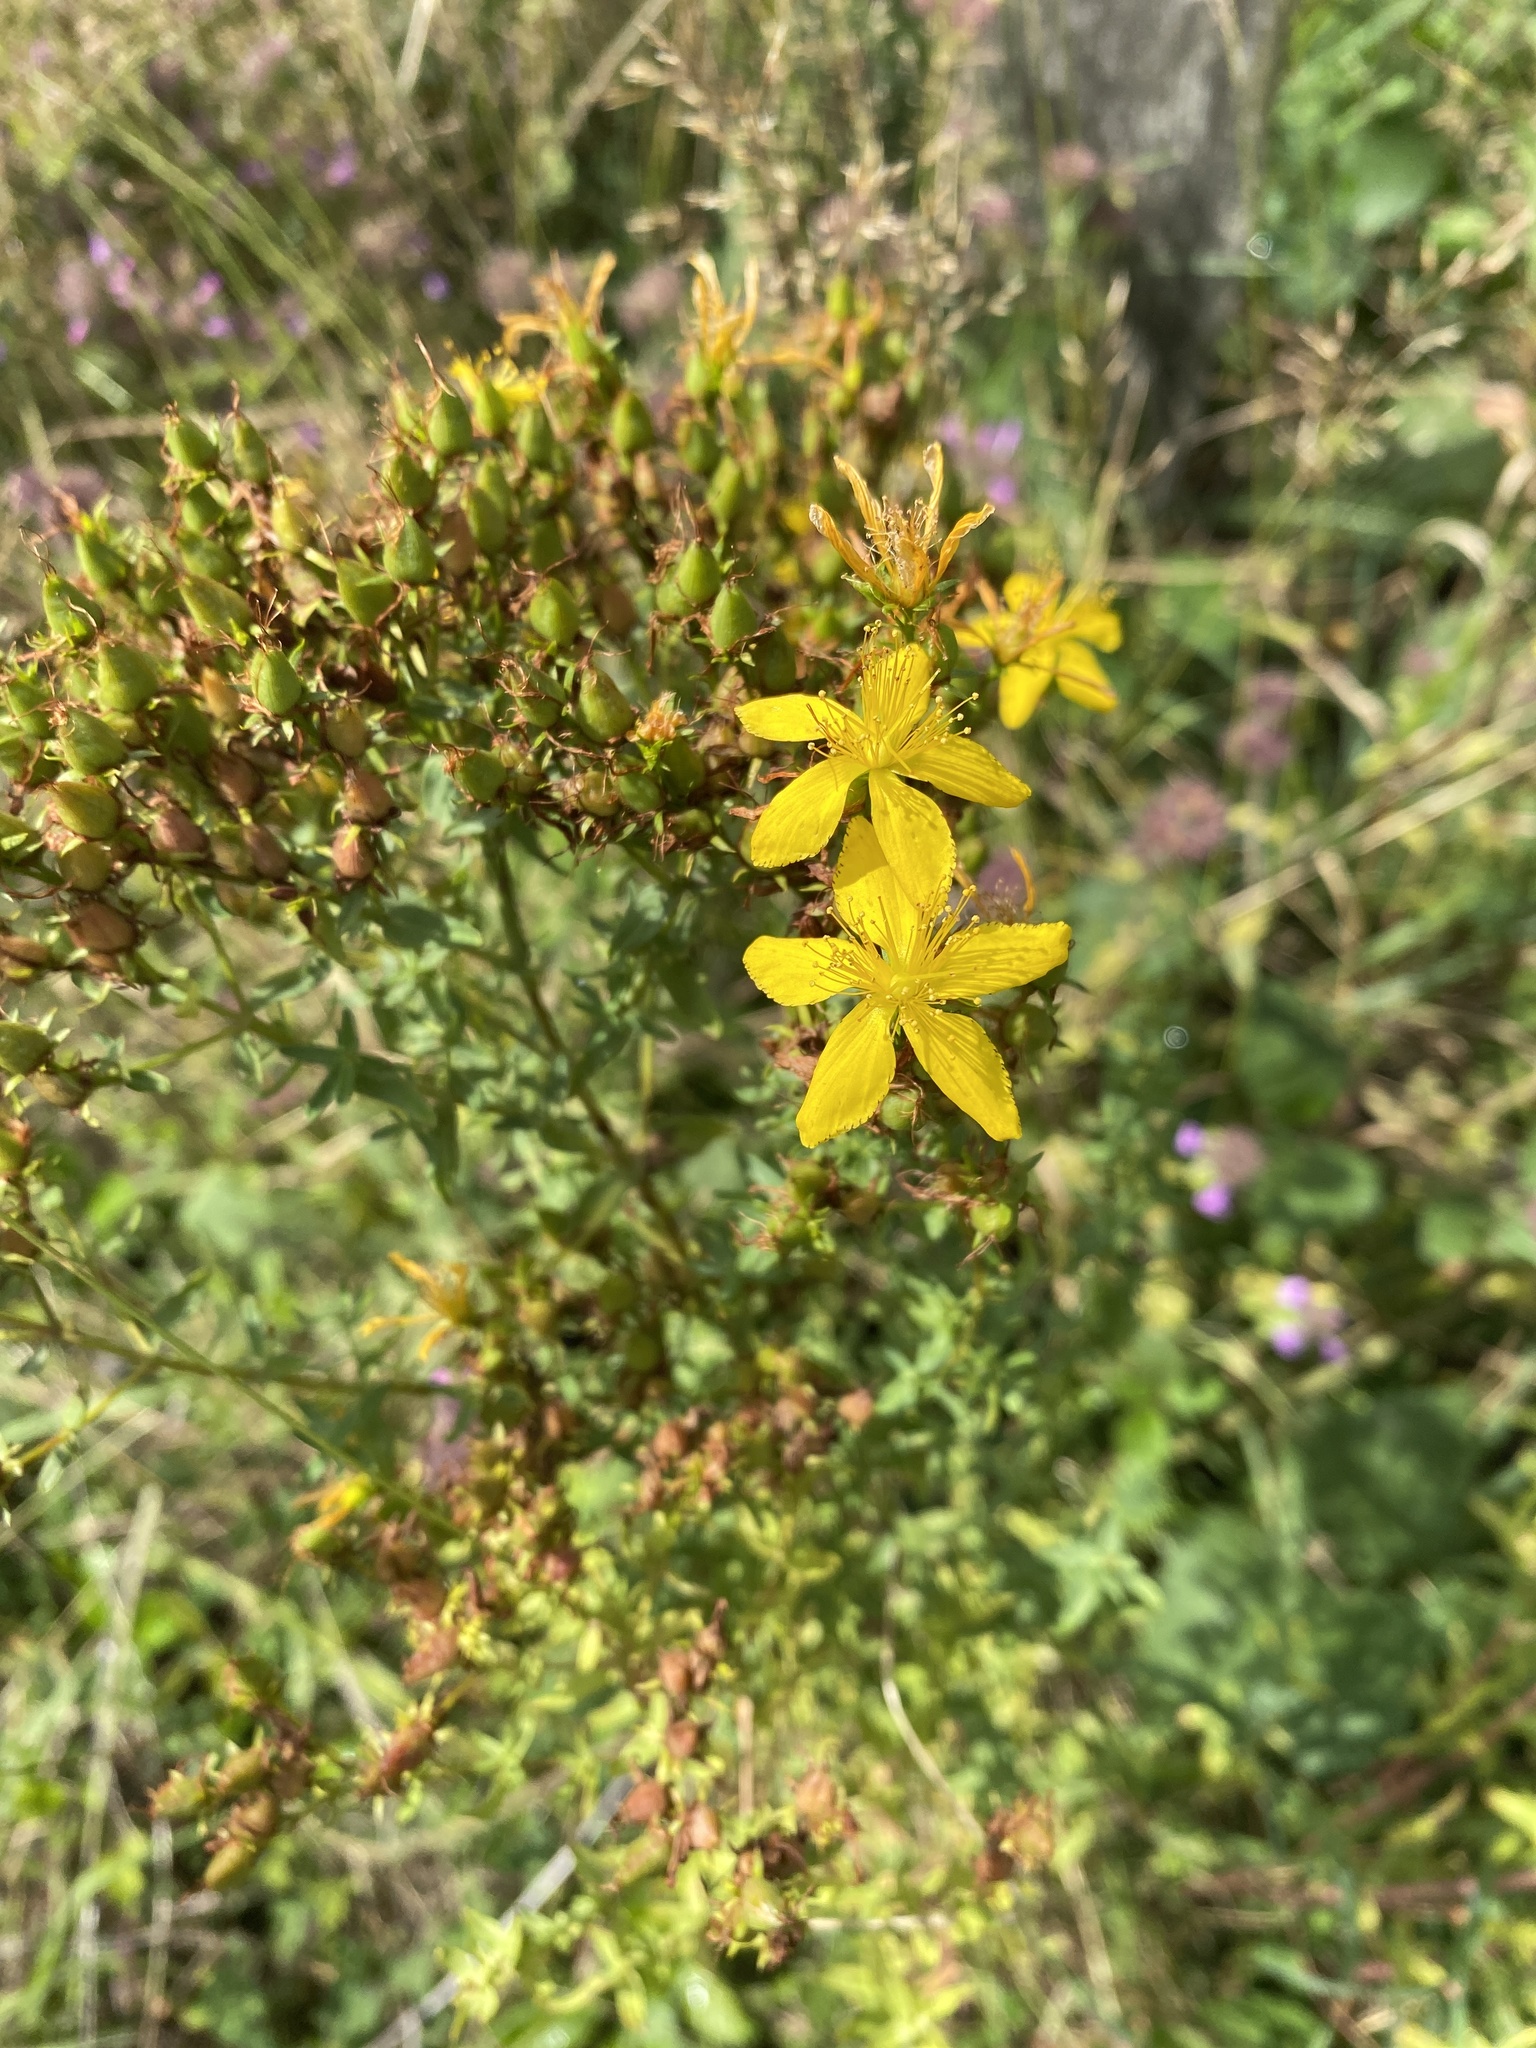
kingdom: Plantae
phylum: Tracheophyta
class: Magnoliopsida
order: Malpighiales
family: Hypericaceae
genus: Hypericum
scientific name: Hypericum perforatum
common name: Common st. johnswort
